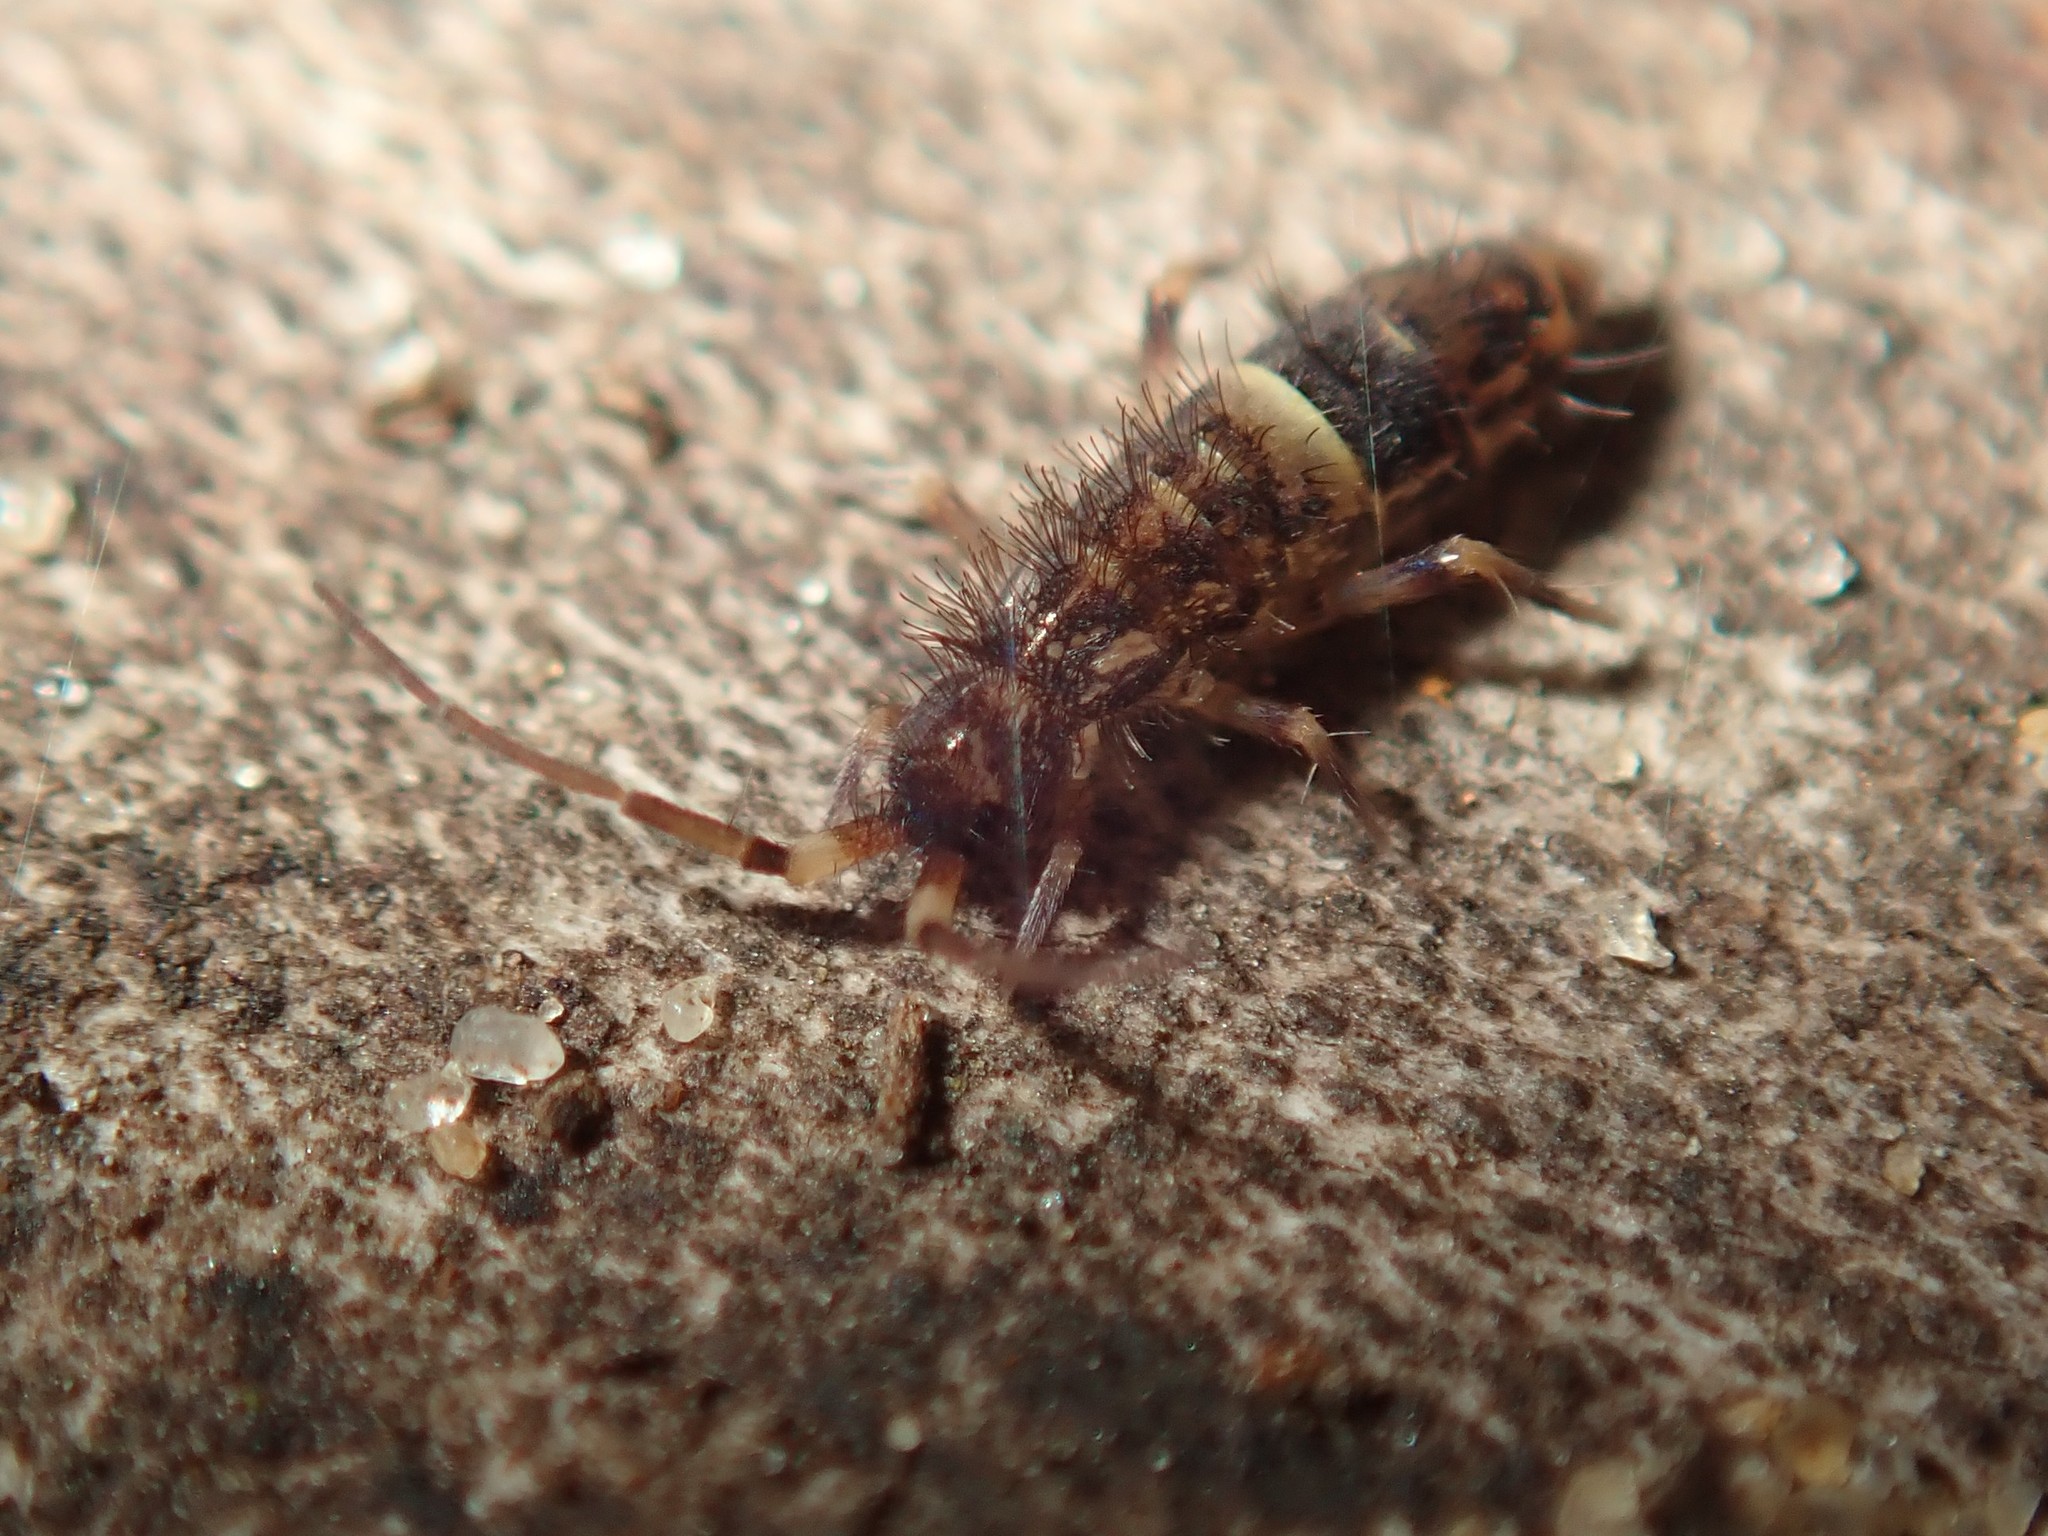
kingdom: Animalia
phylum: Arthropoda
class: Collembola
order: Entomobryomorpha
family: Orchesellidae
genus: Orchesella
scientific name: Orchesella cincta
